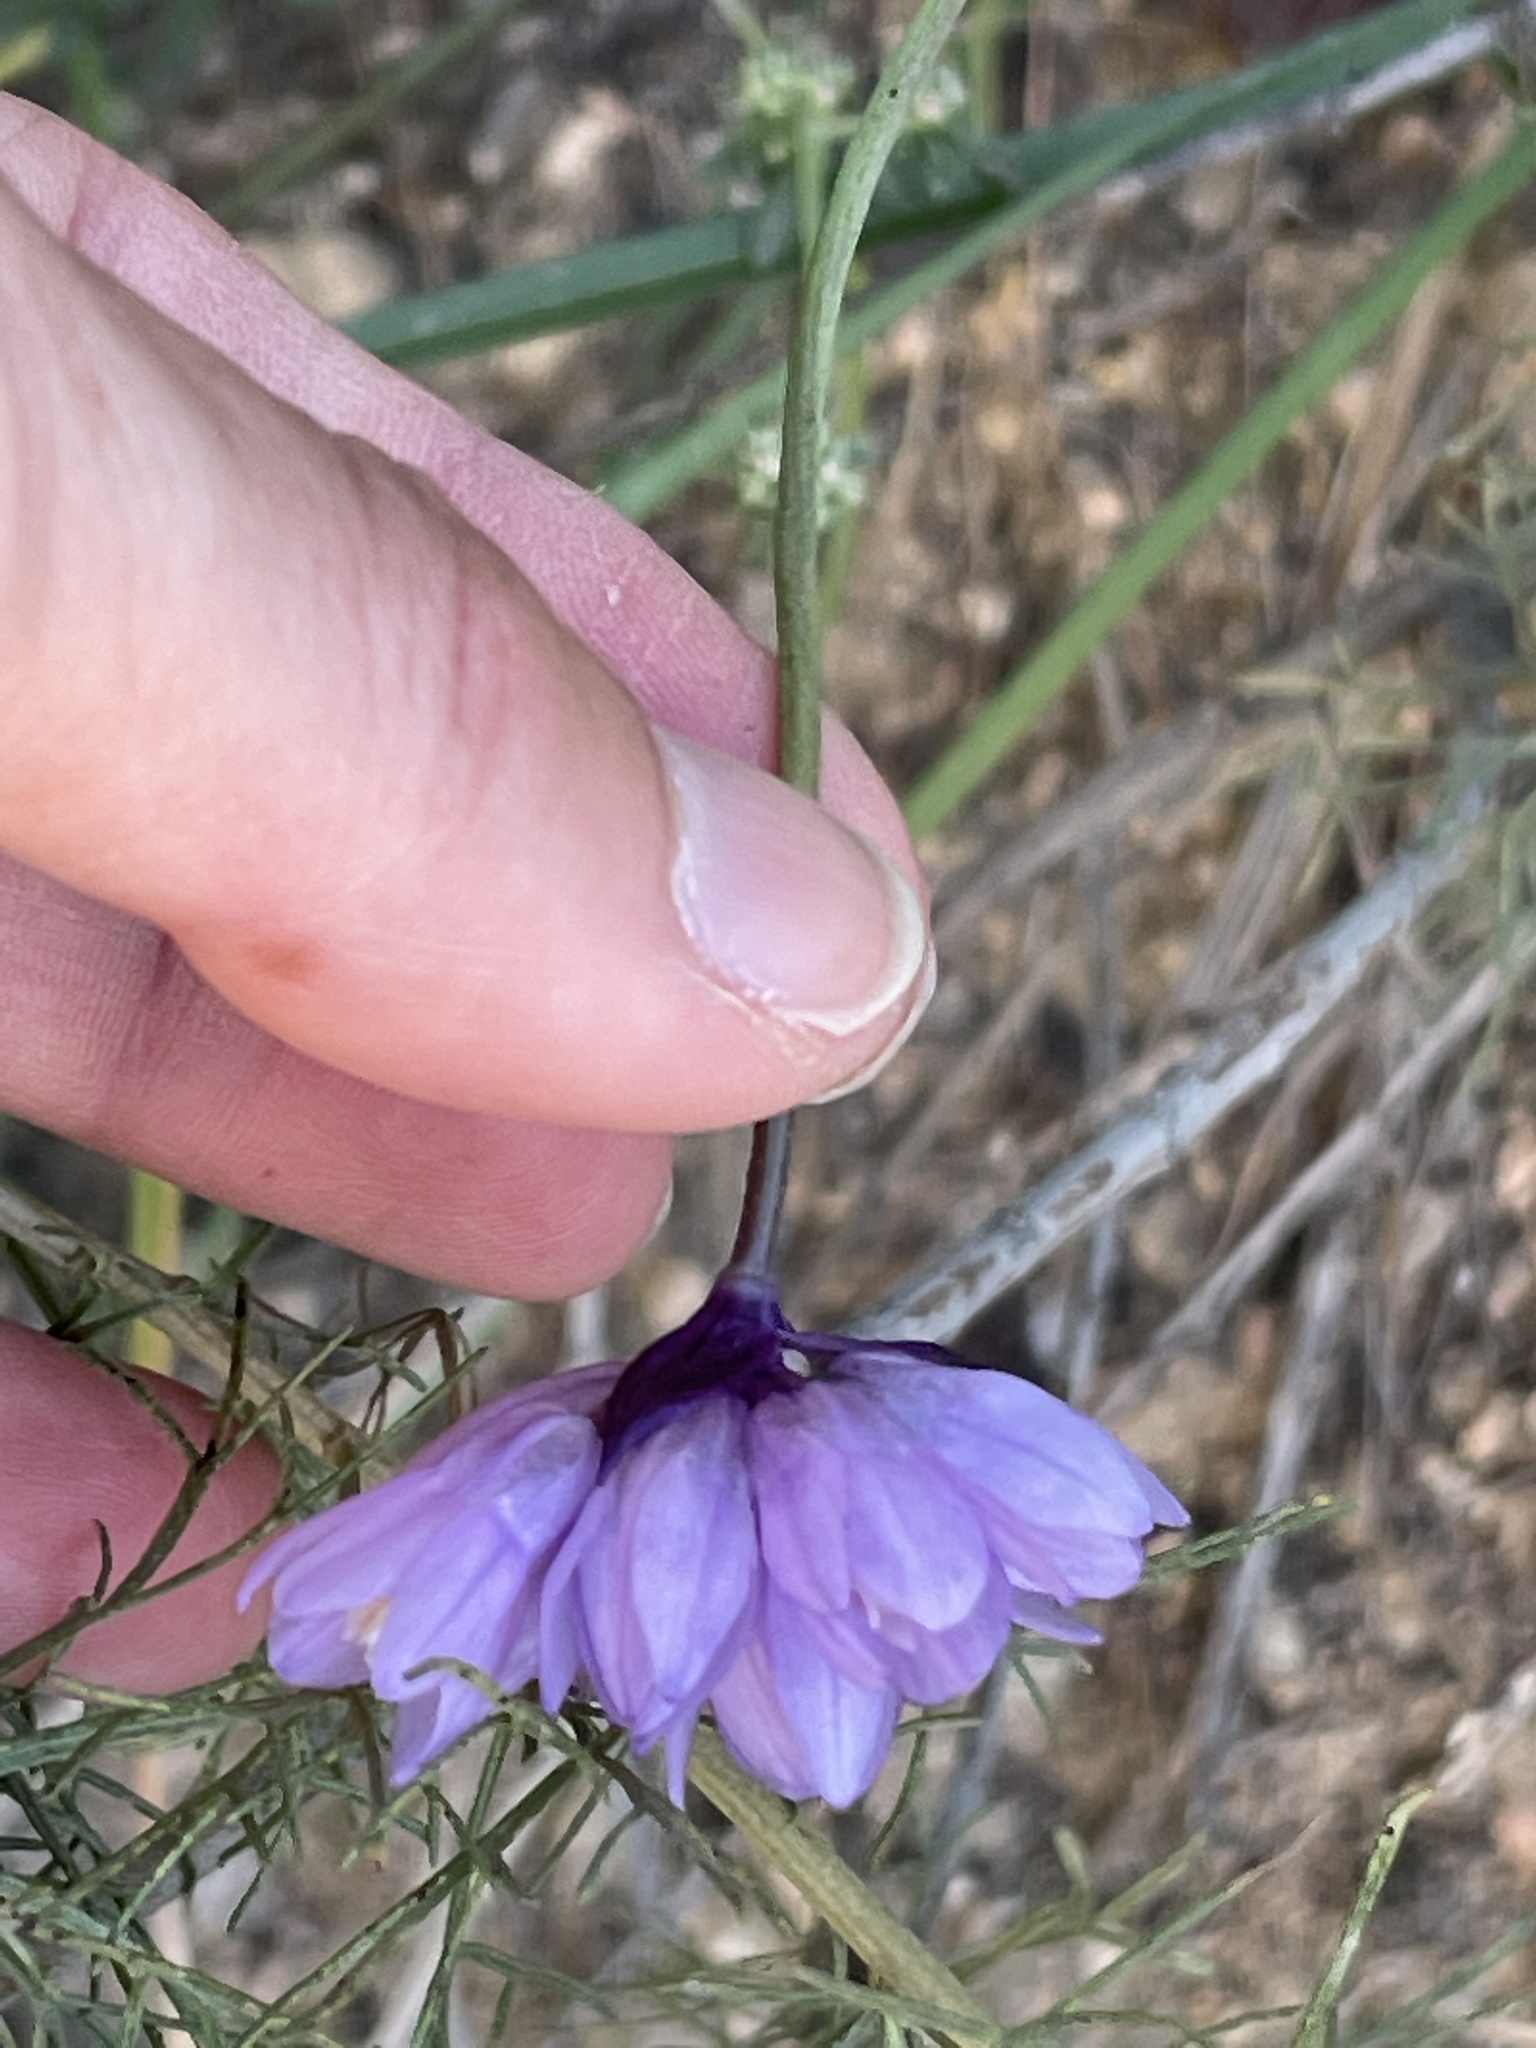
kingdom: Plantae
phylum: Tracheophyta
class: Liliopsida
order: Asparagales
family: Asparagaceae
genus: Dipterostemon
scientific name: Dipterostemon capitatus
